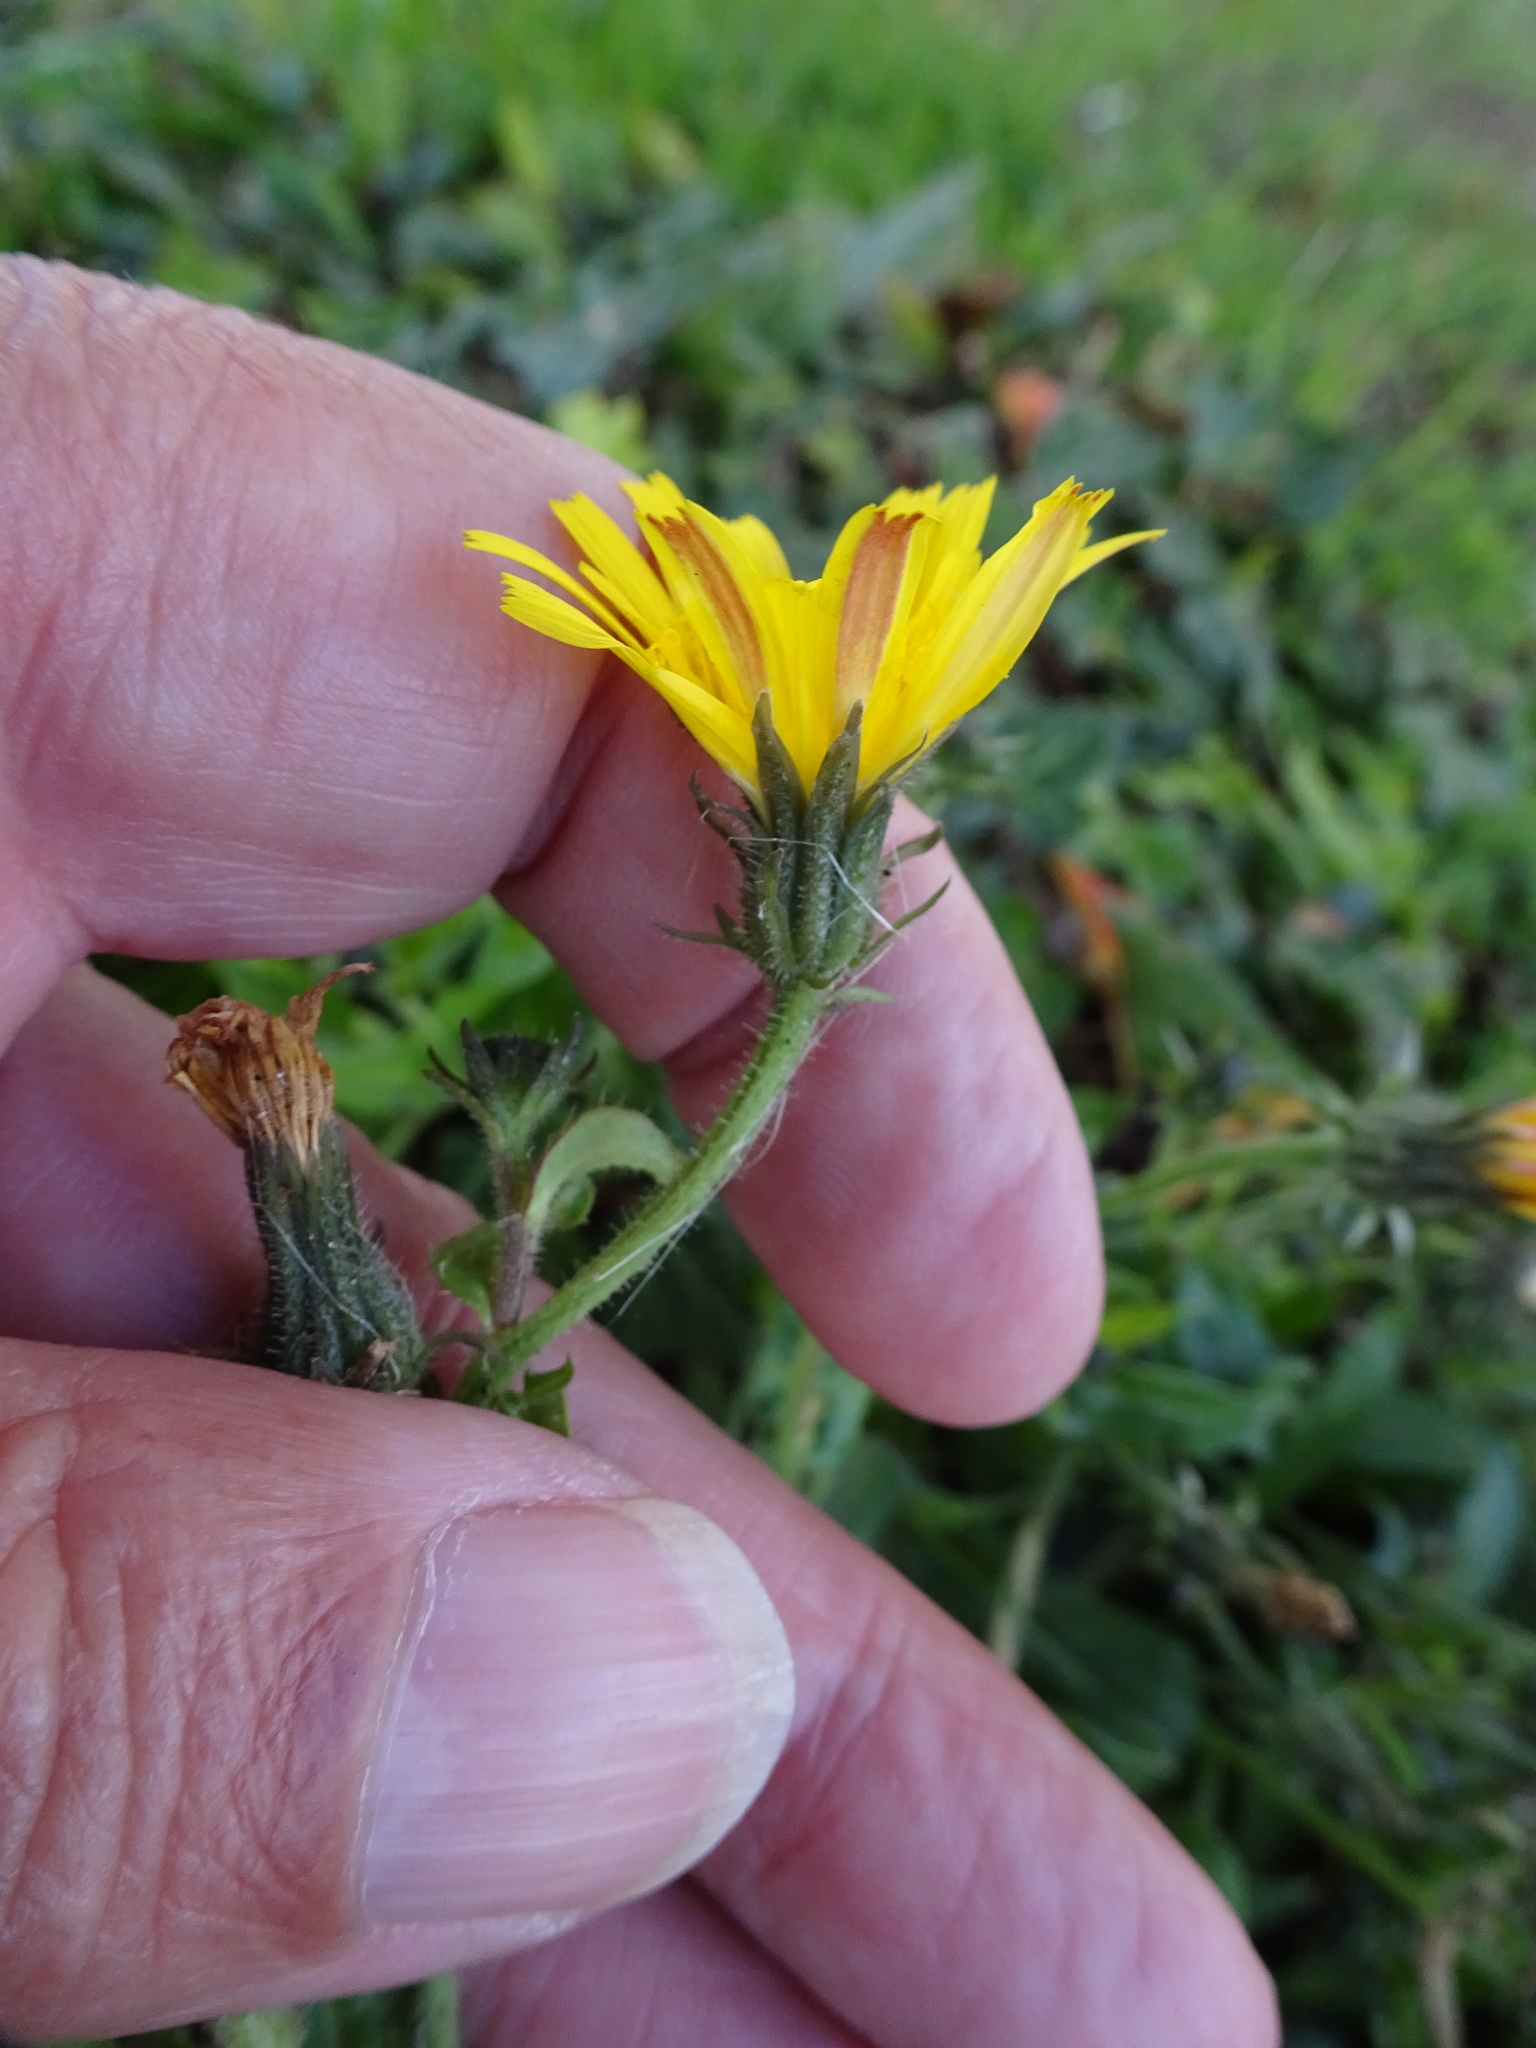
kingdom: Plantae
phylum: Tracheophyta
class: Magnoliopsida
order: Asterales
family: Asteraceae
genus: Picris
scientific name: Picris hieracioides
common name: Hawkweed oxtongue
